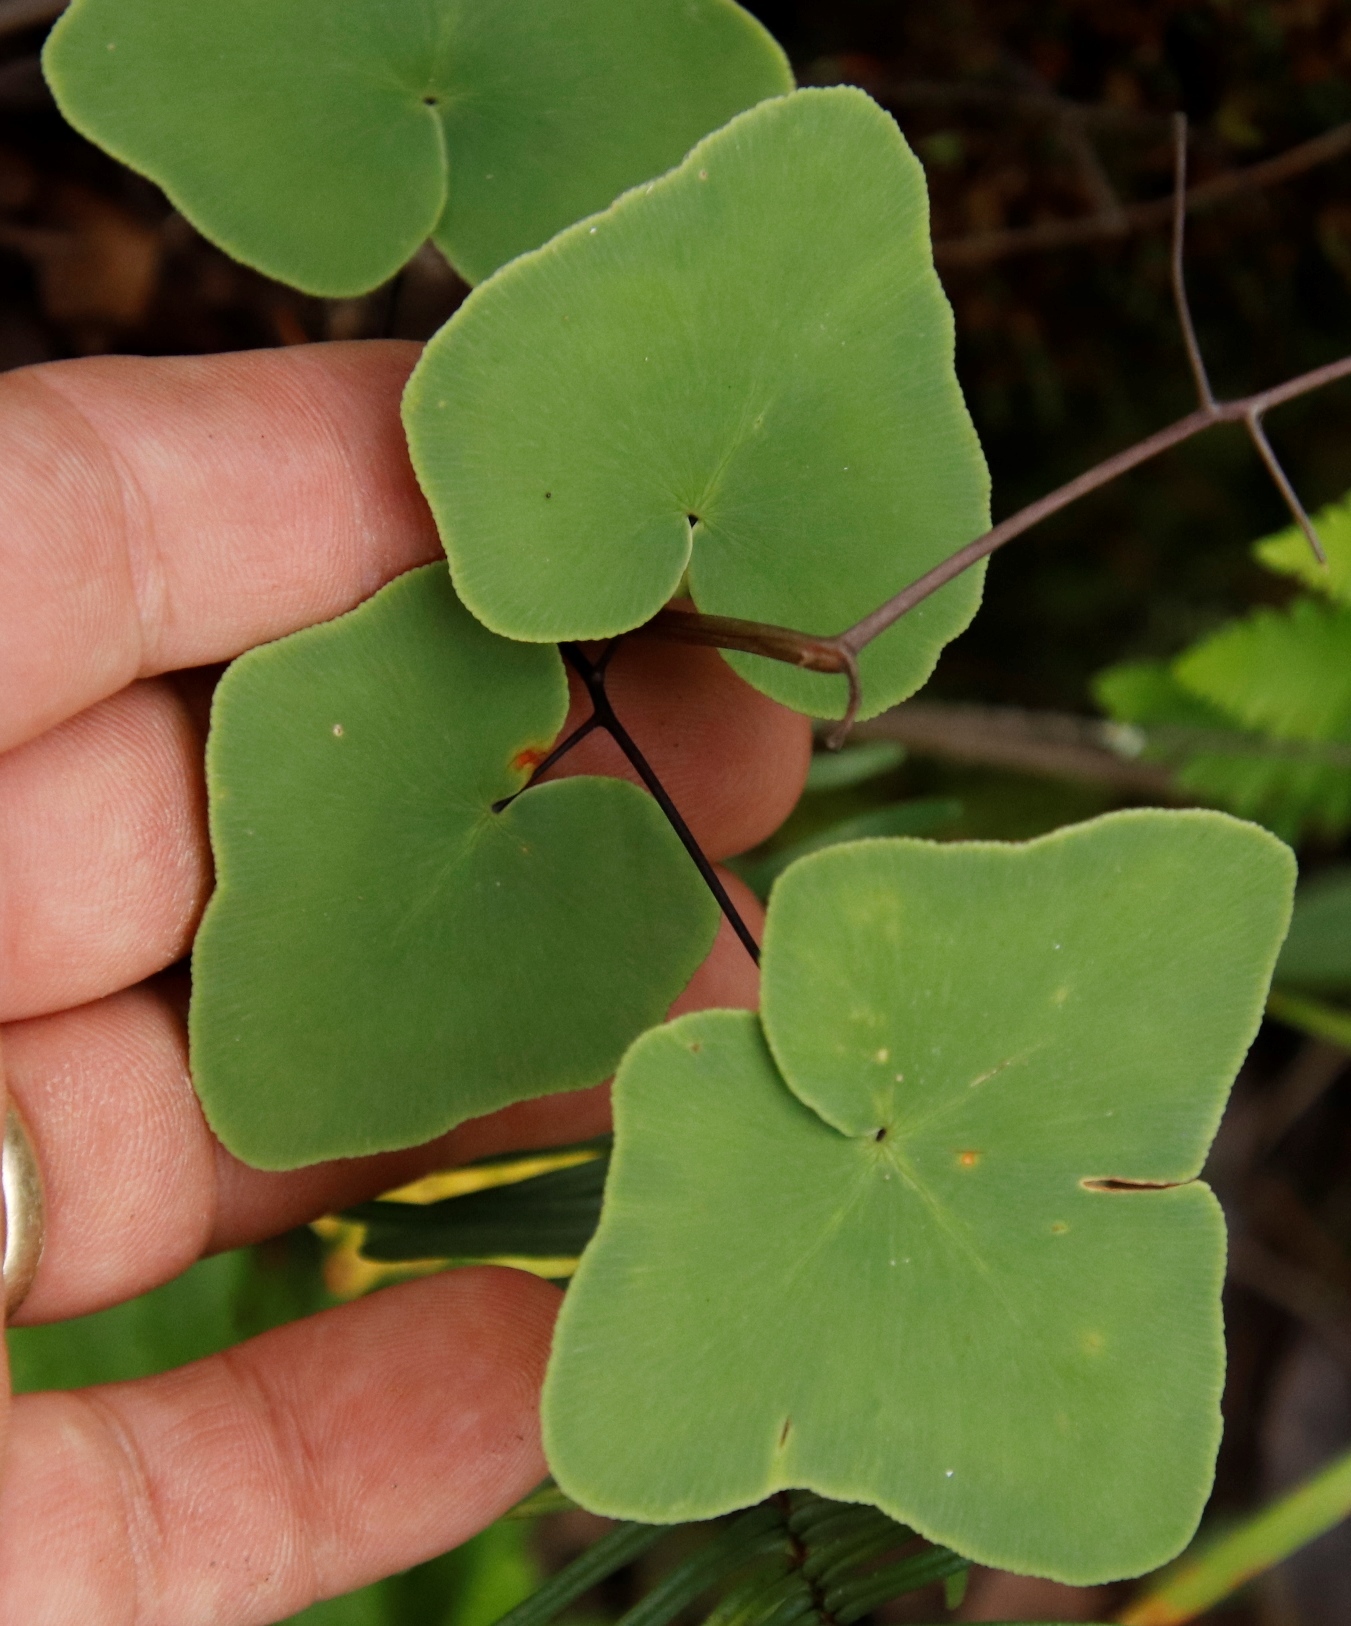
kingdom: Plantae
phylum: Tracheophyta
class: Polypodiopsida
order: Polypodiales
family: Pteridaceae
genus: Pellaea
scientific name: Pellaea calomelanos
